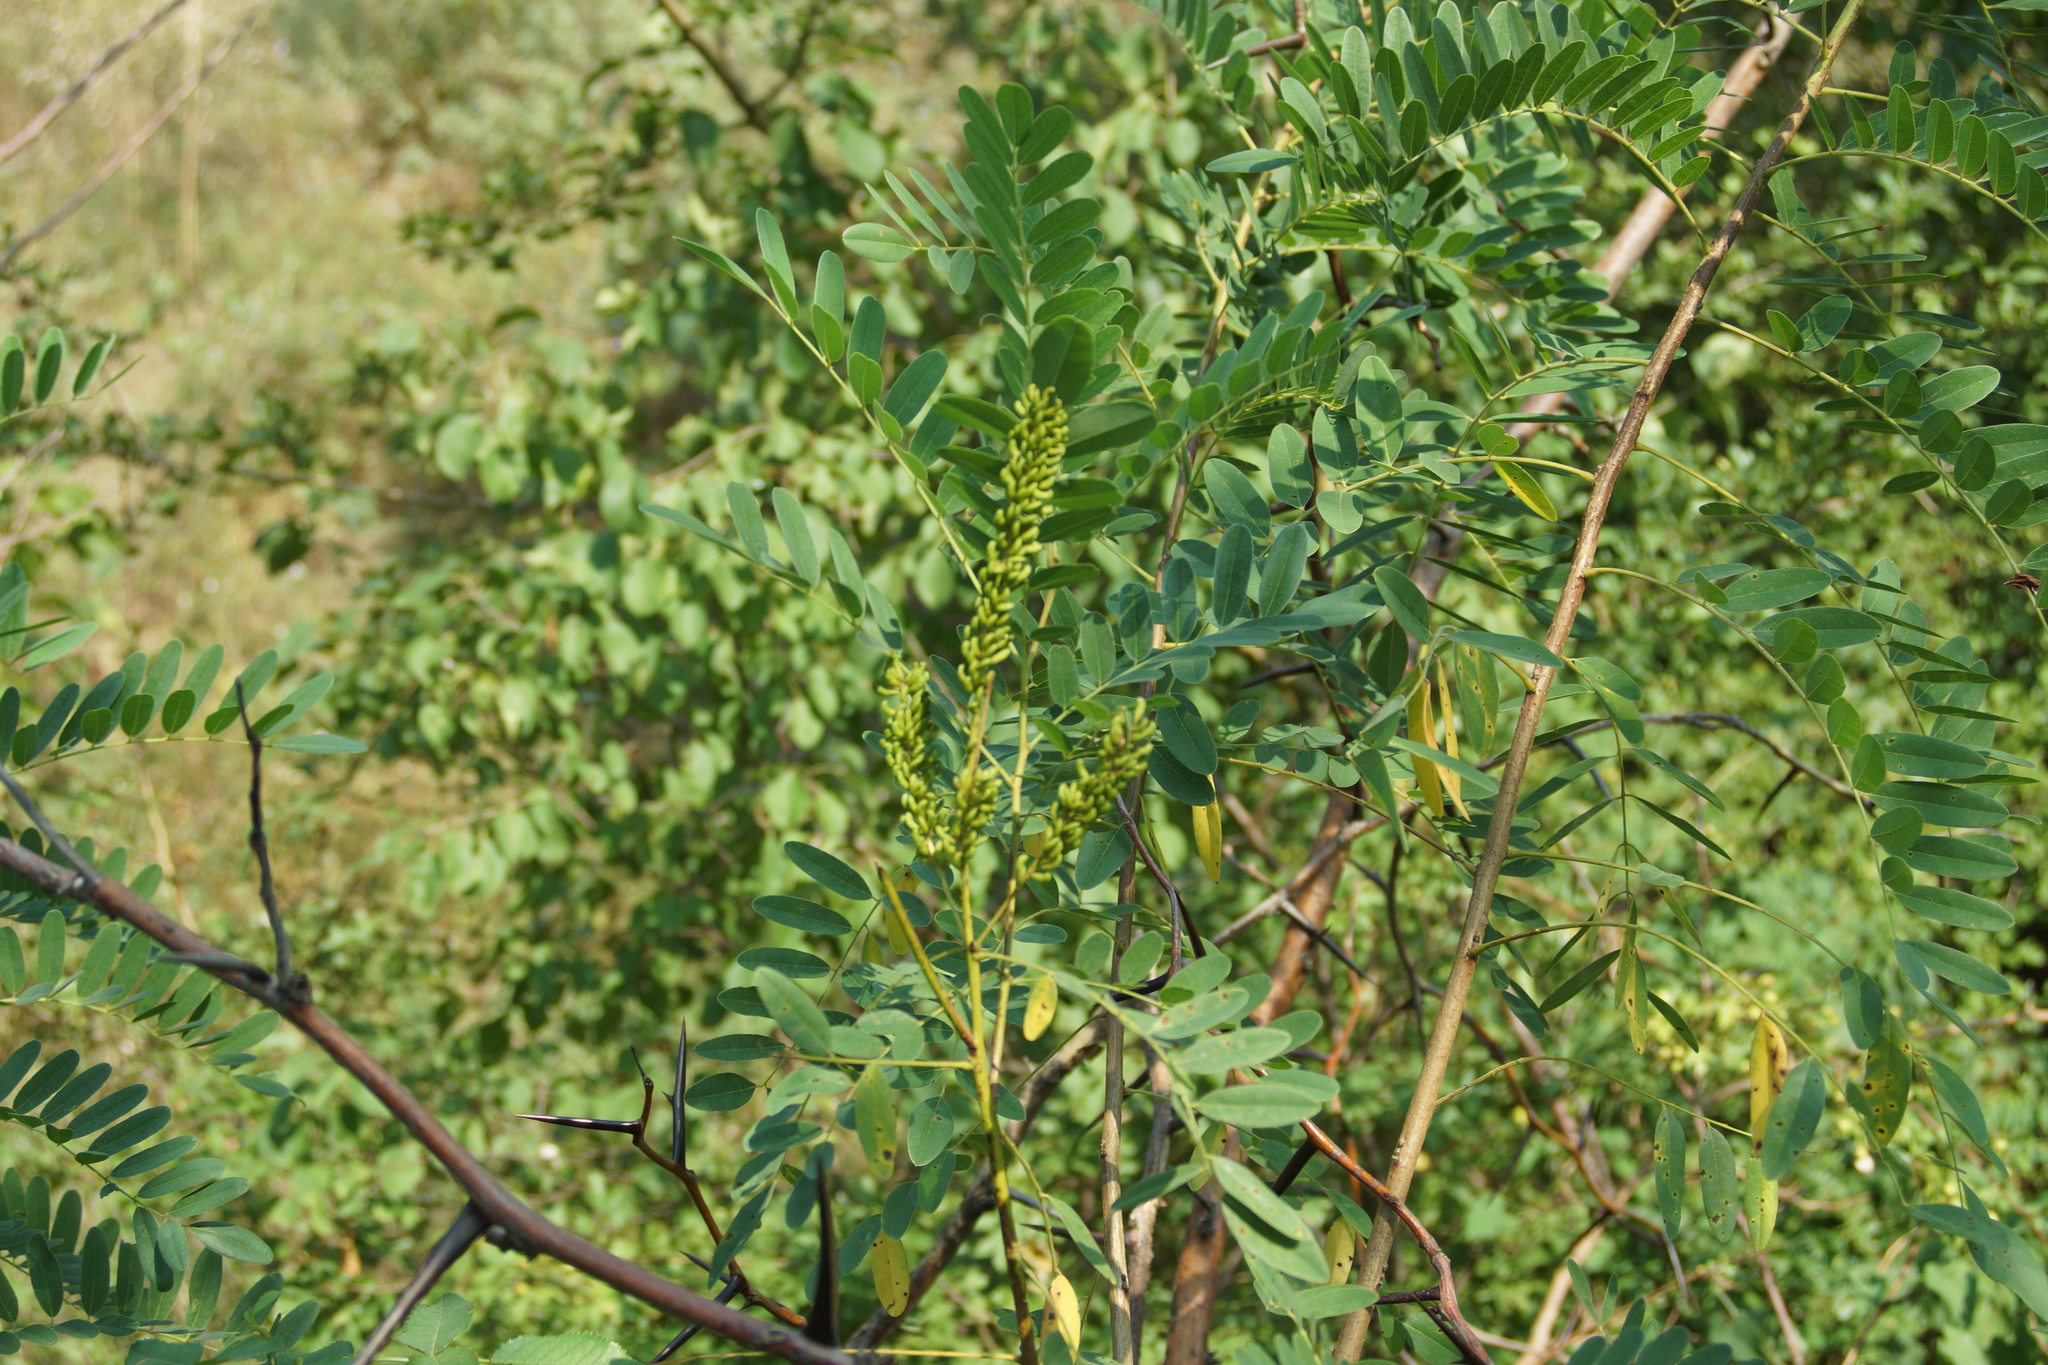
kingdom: Plantae
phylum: Tracheophyta
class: Magnoliopsida
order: Fabales
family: Fabaceae
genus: Amorpha
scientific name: Amorpha fruticosa
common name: False indigo
